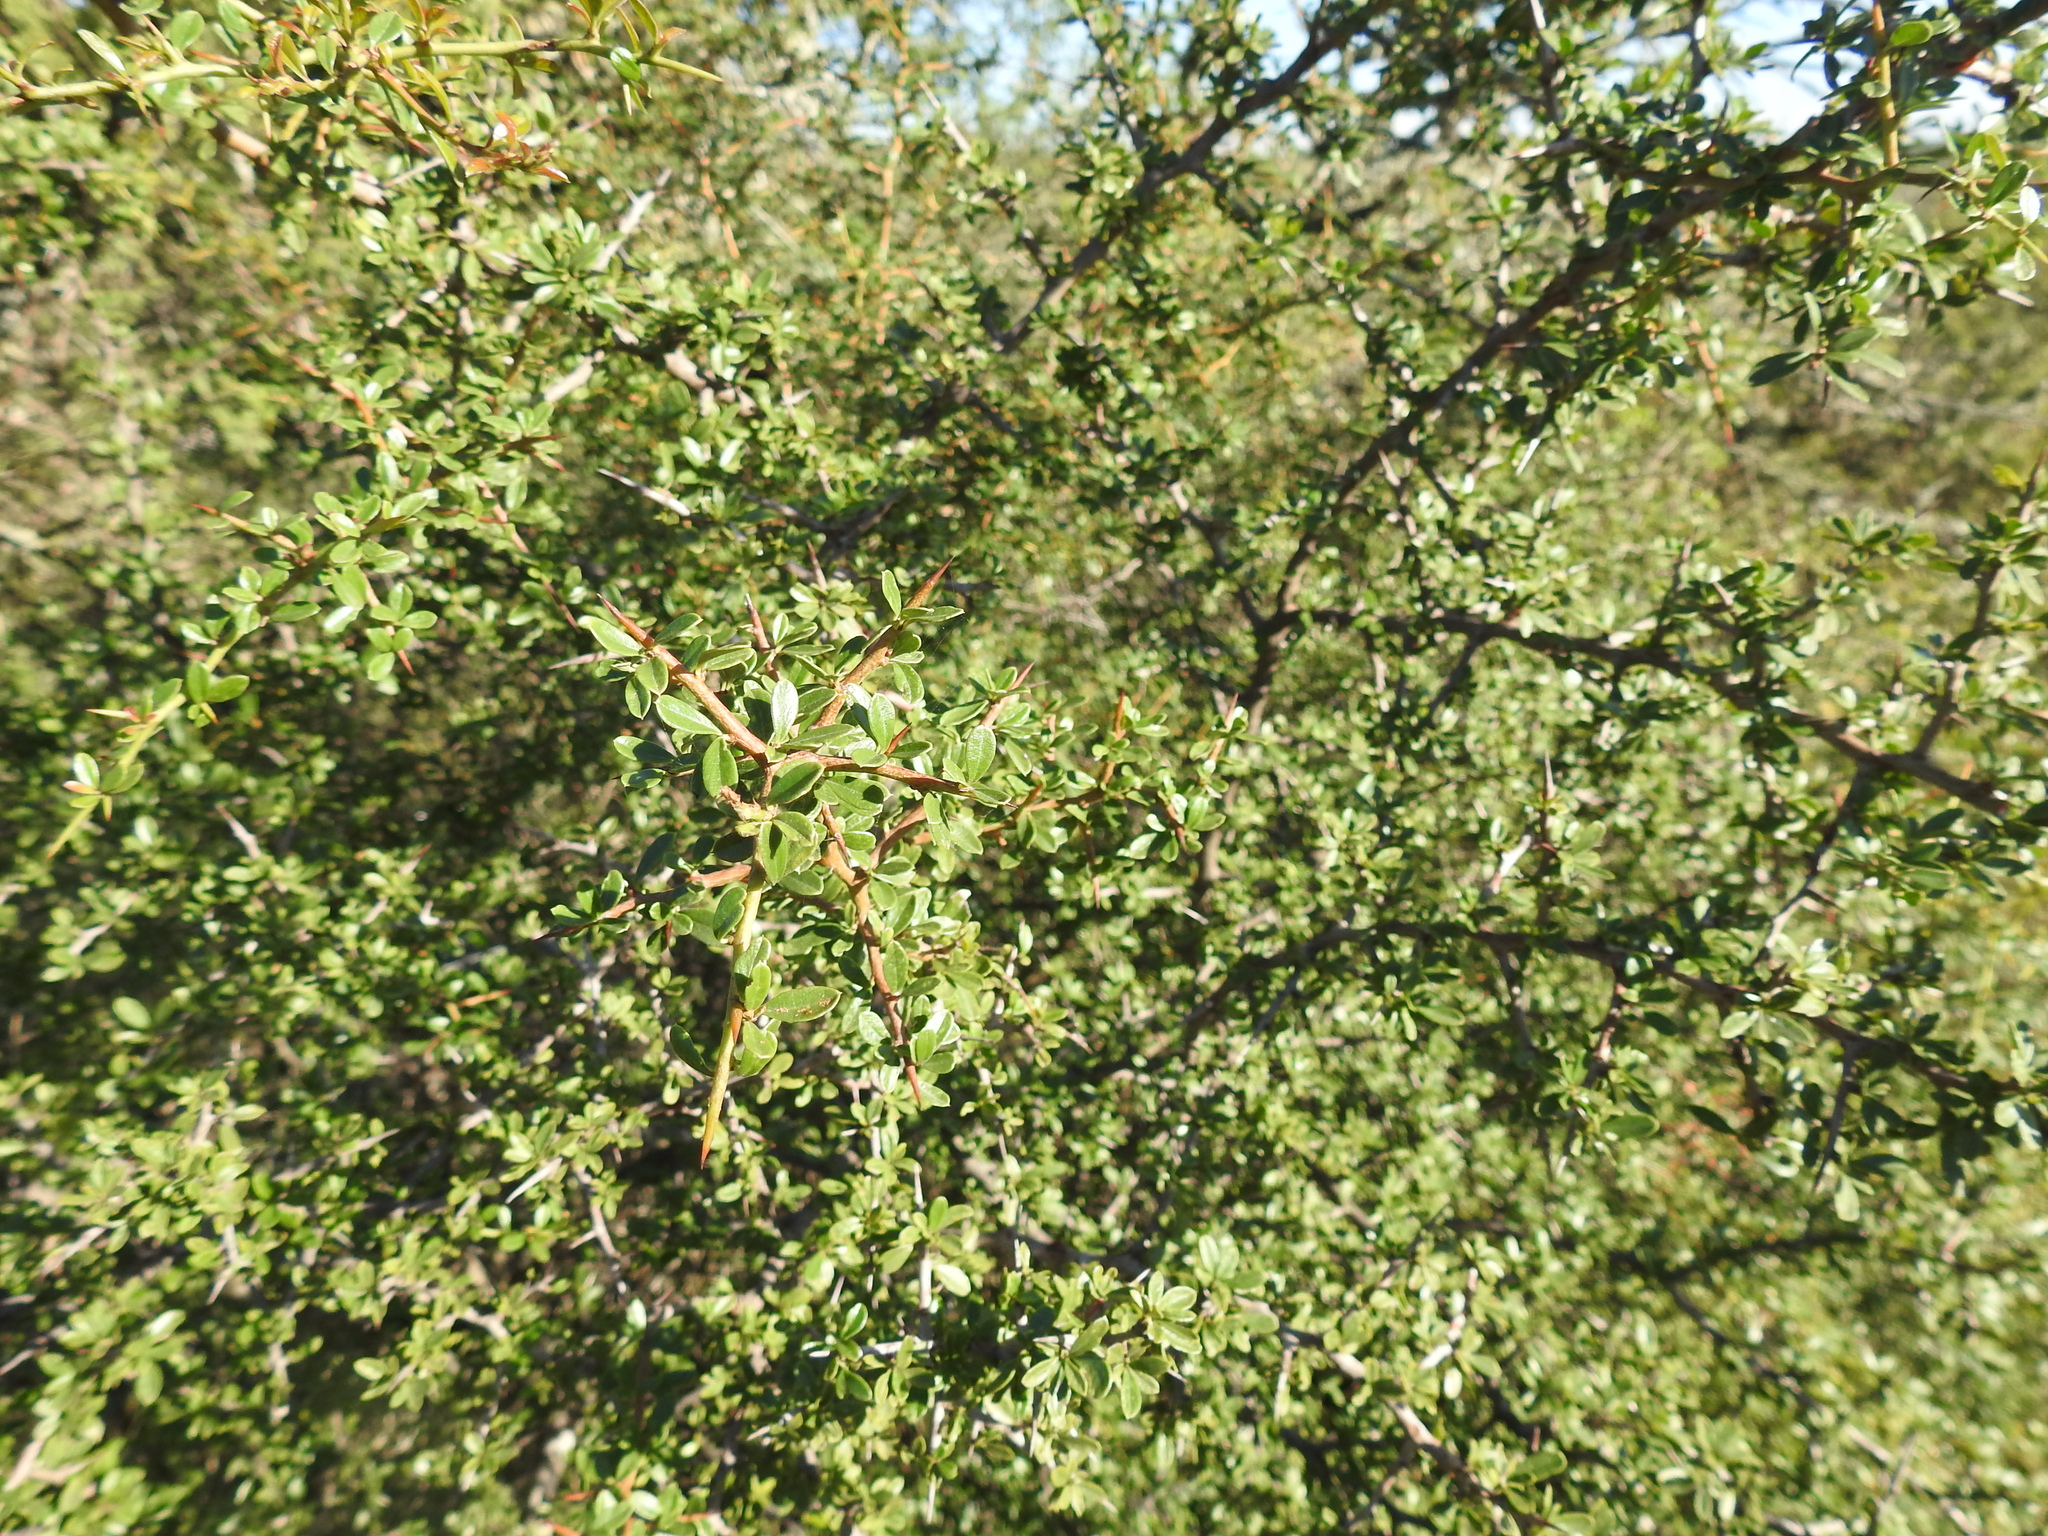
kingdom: Plantae
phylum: Tracheophyta
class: Magnoliopsida
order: Rosales
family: Rhamnaceae
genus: Condalia
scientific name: Condalia microphylla
